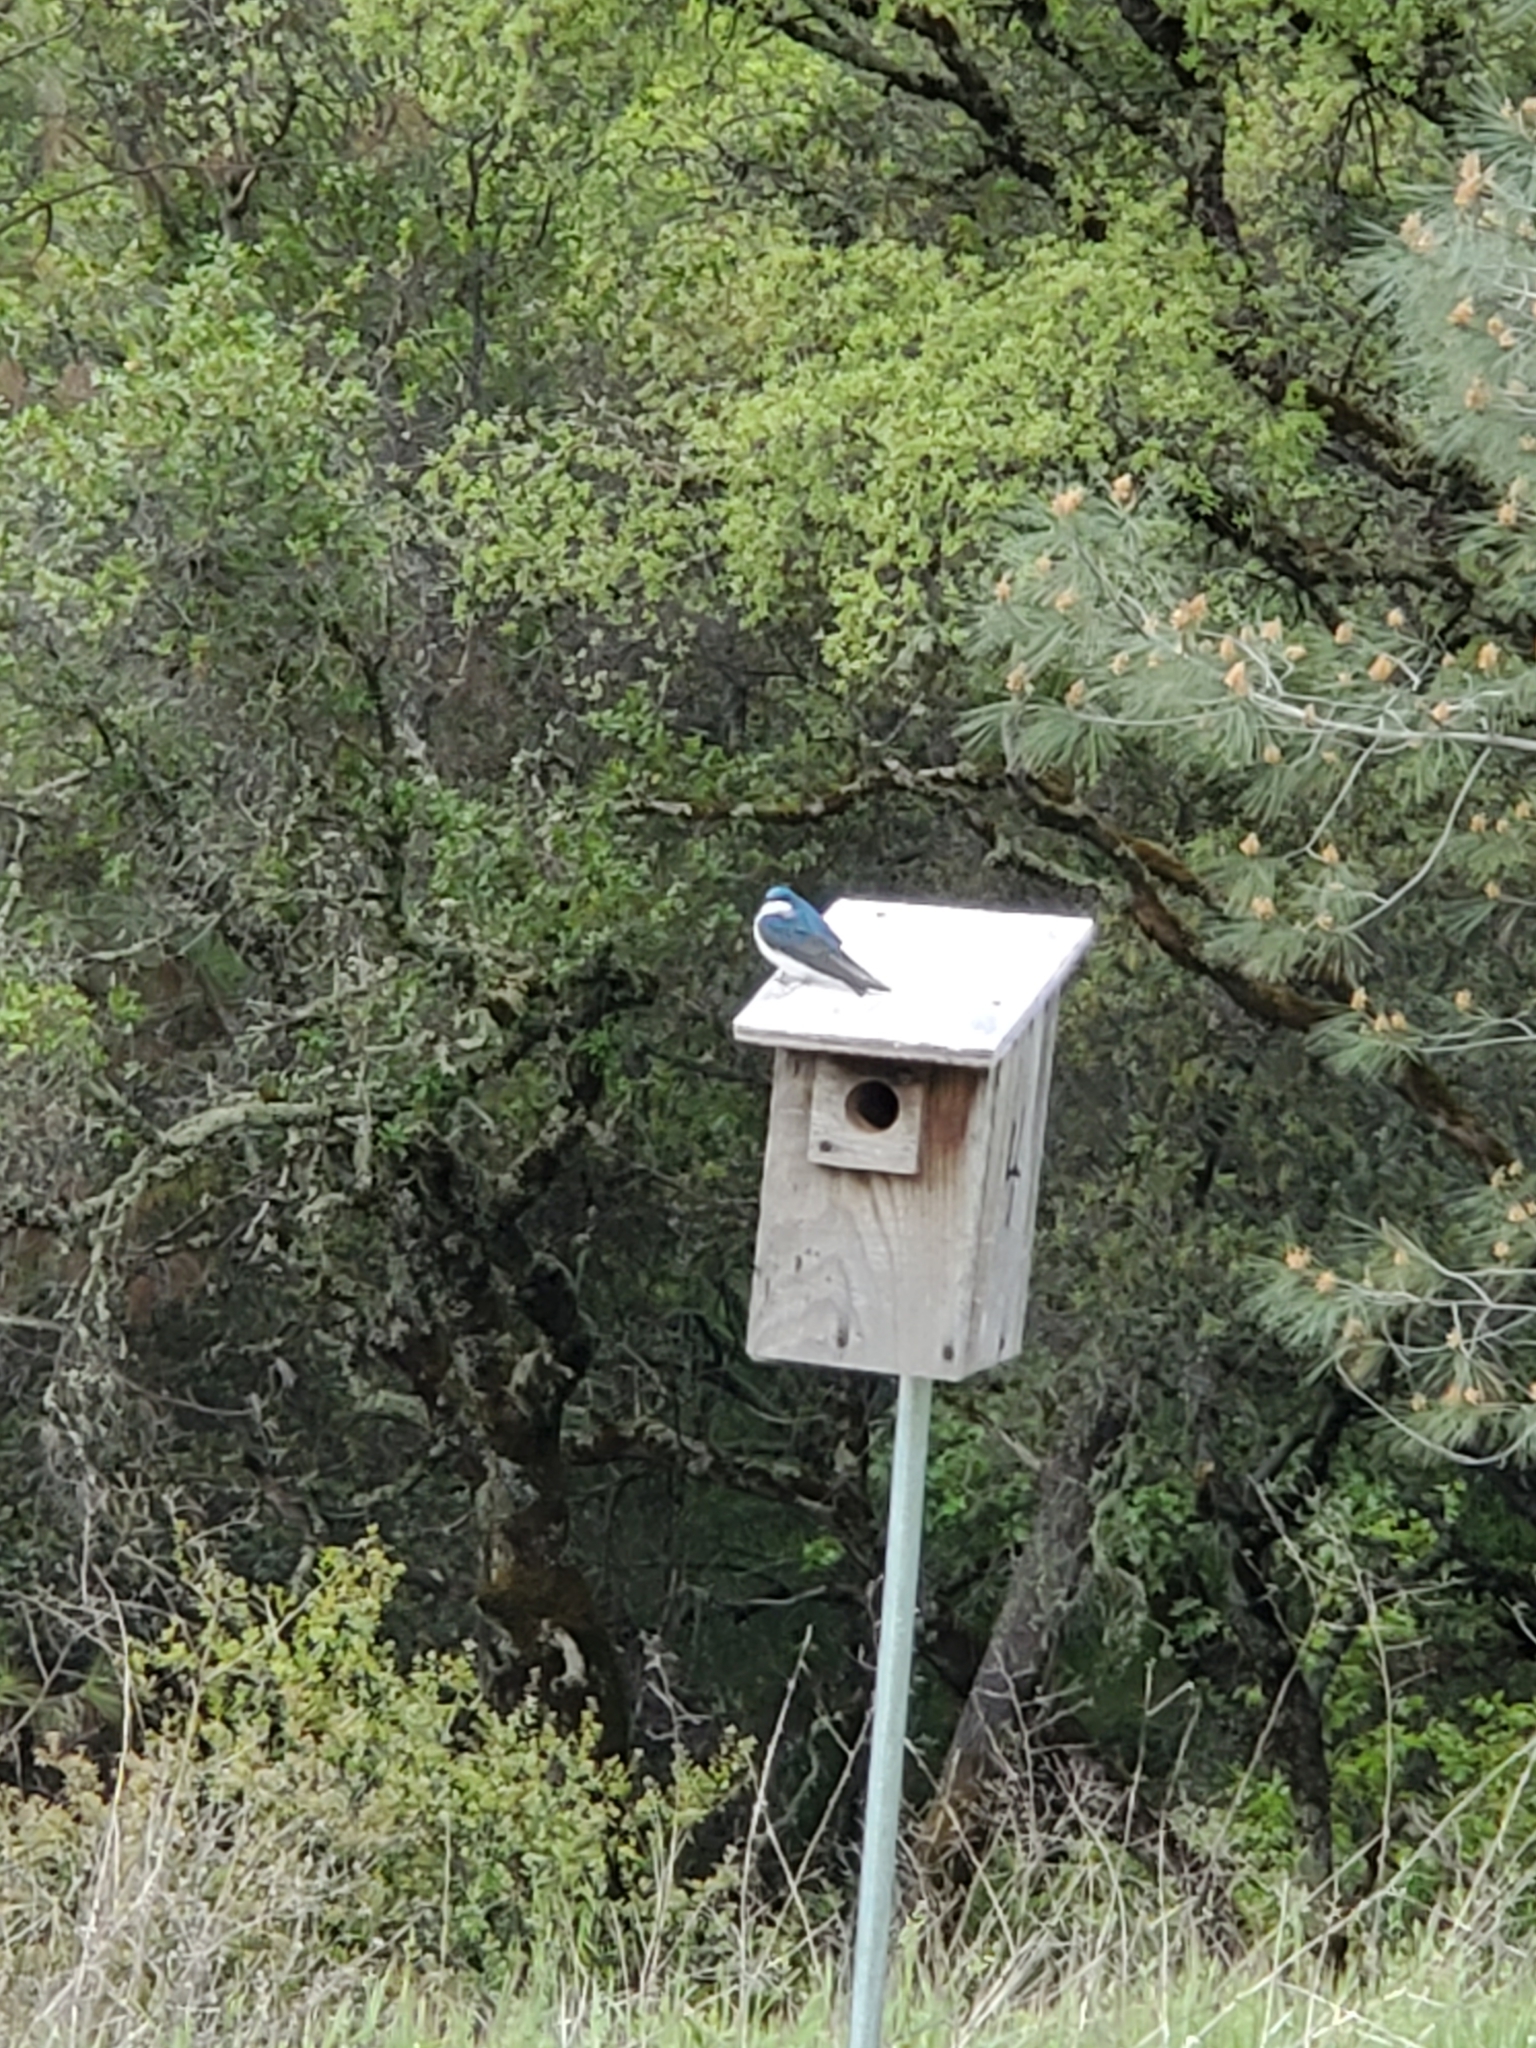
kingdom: Animalia
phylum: Chordata
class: Aves
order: Passeriformes
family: Hirundinidae
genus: Tachycineta
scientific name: Tachycineta bicolor
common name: Tree swallow
